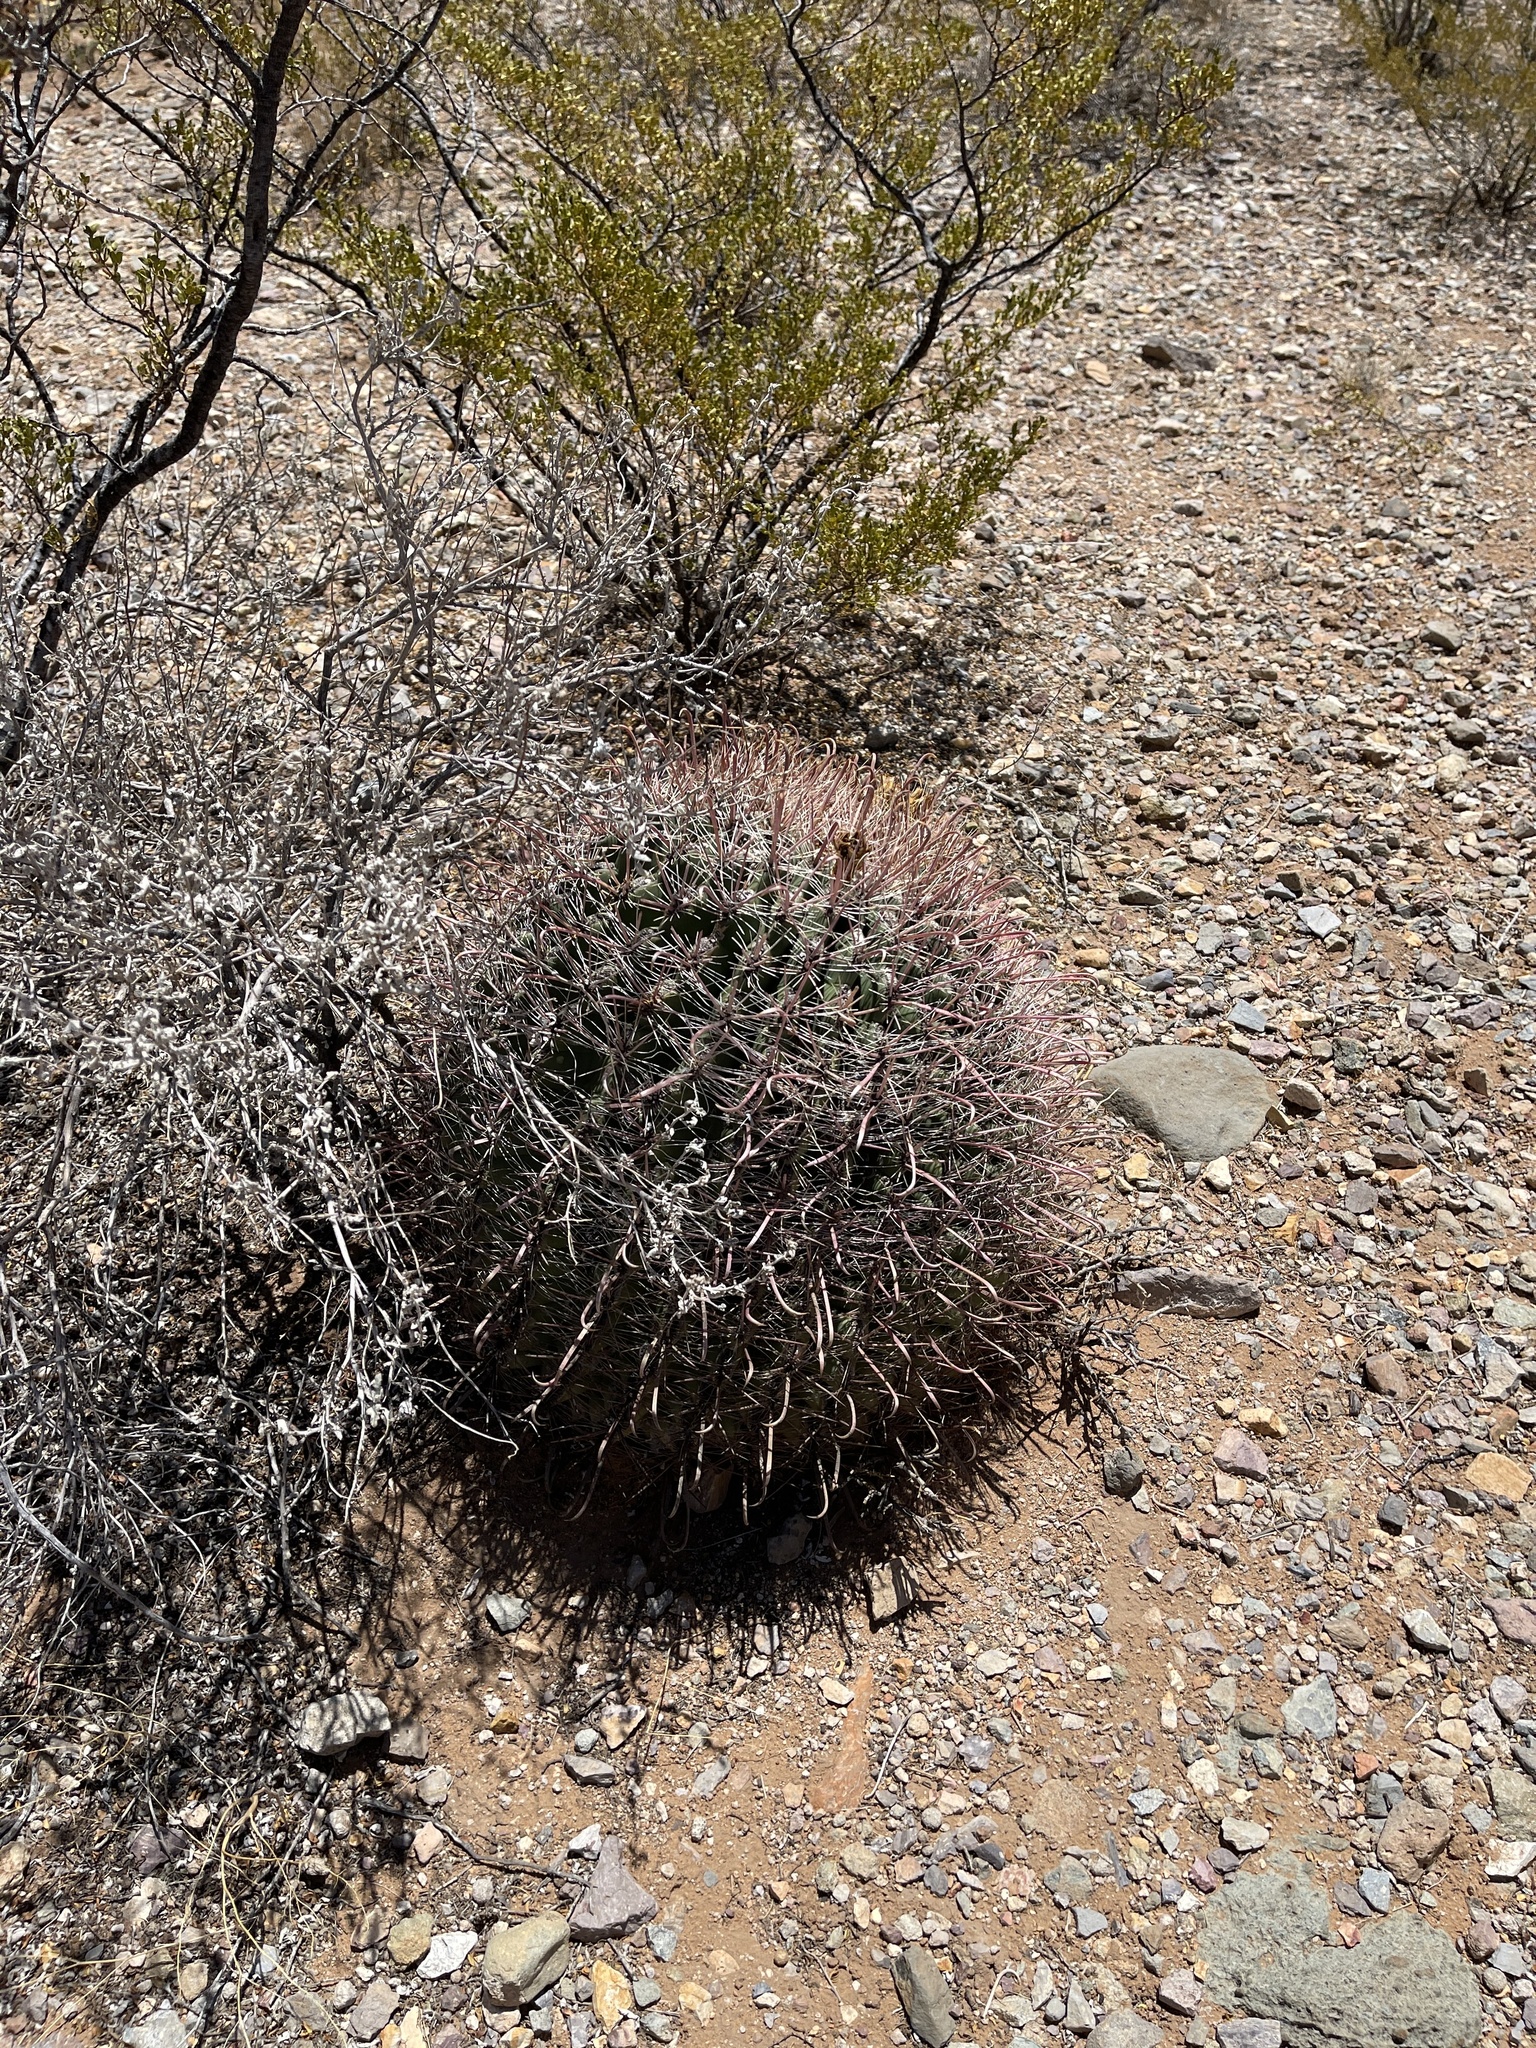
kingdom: Plantae
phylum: Tracheophyta
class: Magnoliopsida
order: Caryophyllales
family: Cactaceae
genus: Ferocactus
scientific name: Ferocactus wislizeni
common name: Candy barrel cactus
